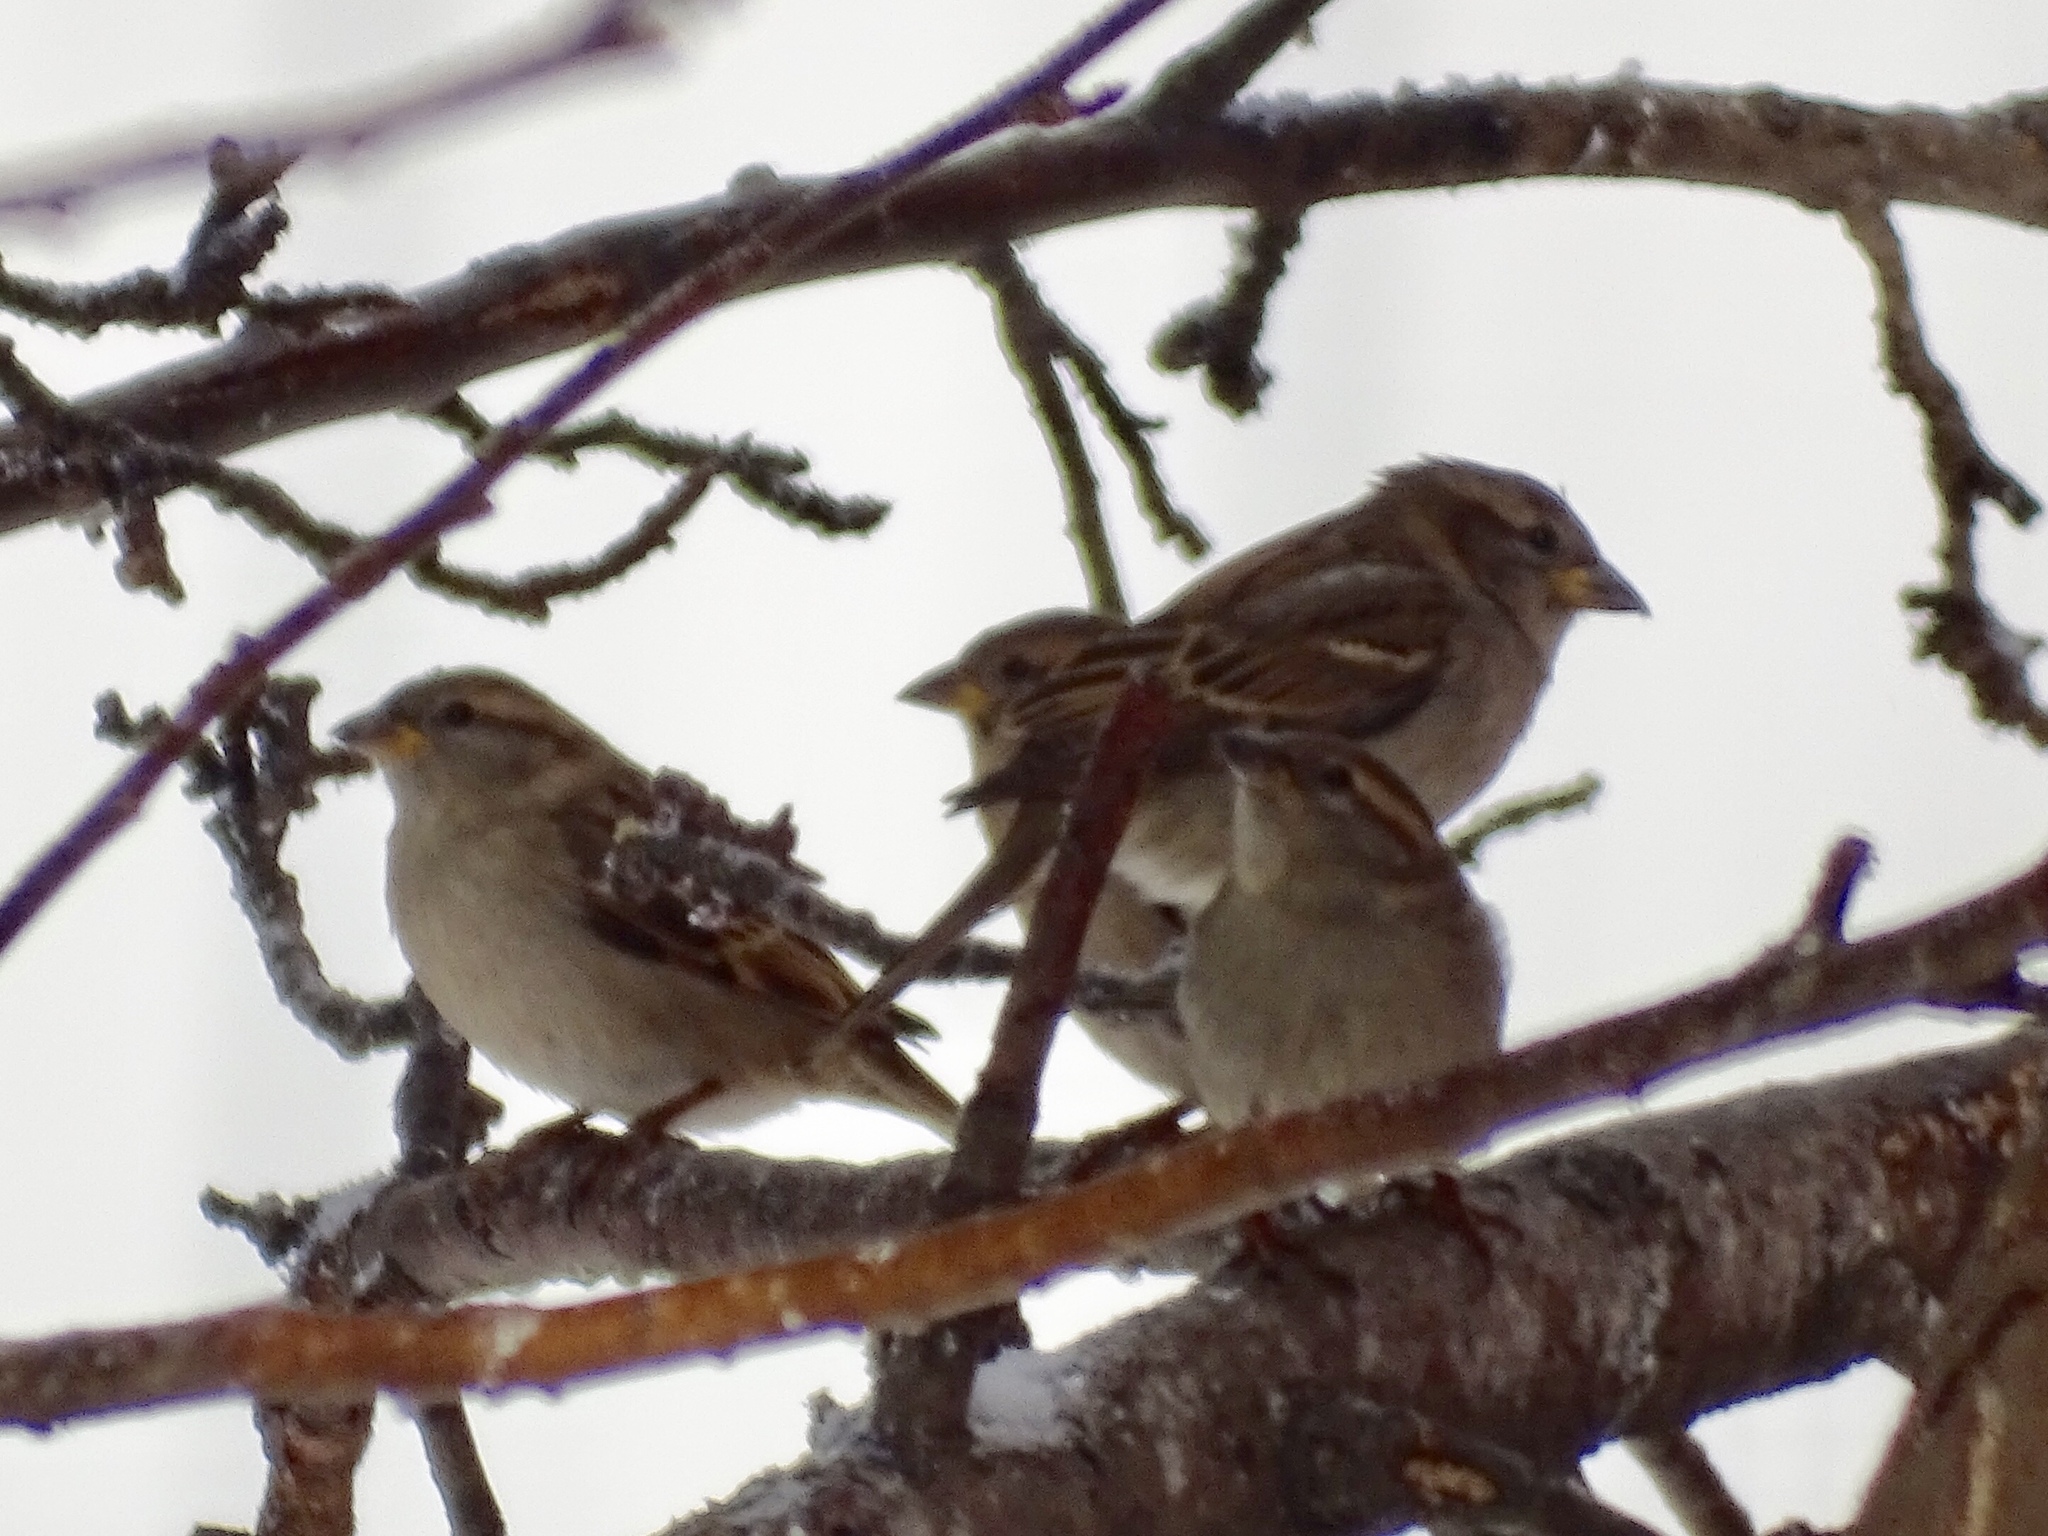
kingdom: Animalia
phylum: Chordata
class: Aves
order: Passeriformes
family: Passeridae
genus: Passer
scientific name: Passer domesticus
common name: House sparrow
